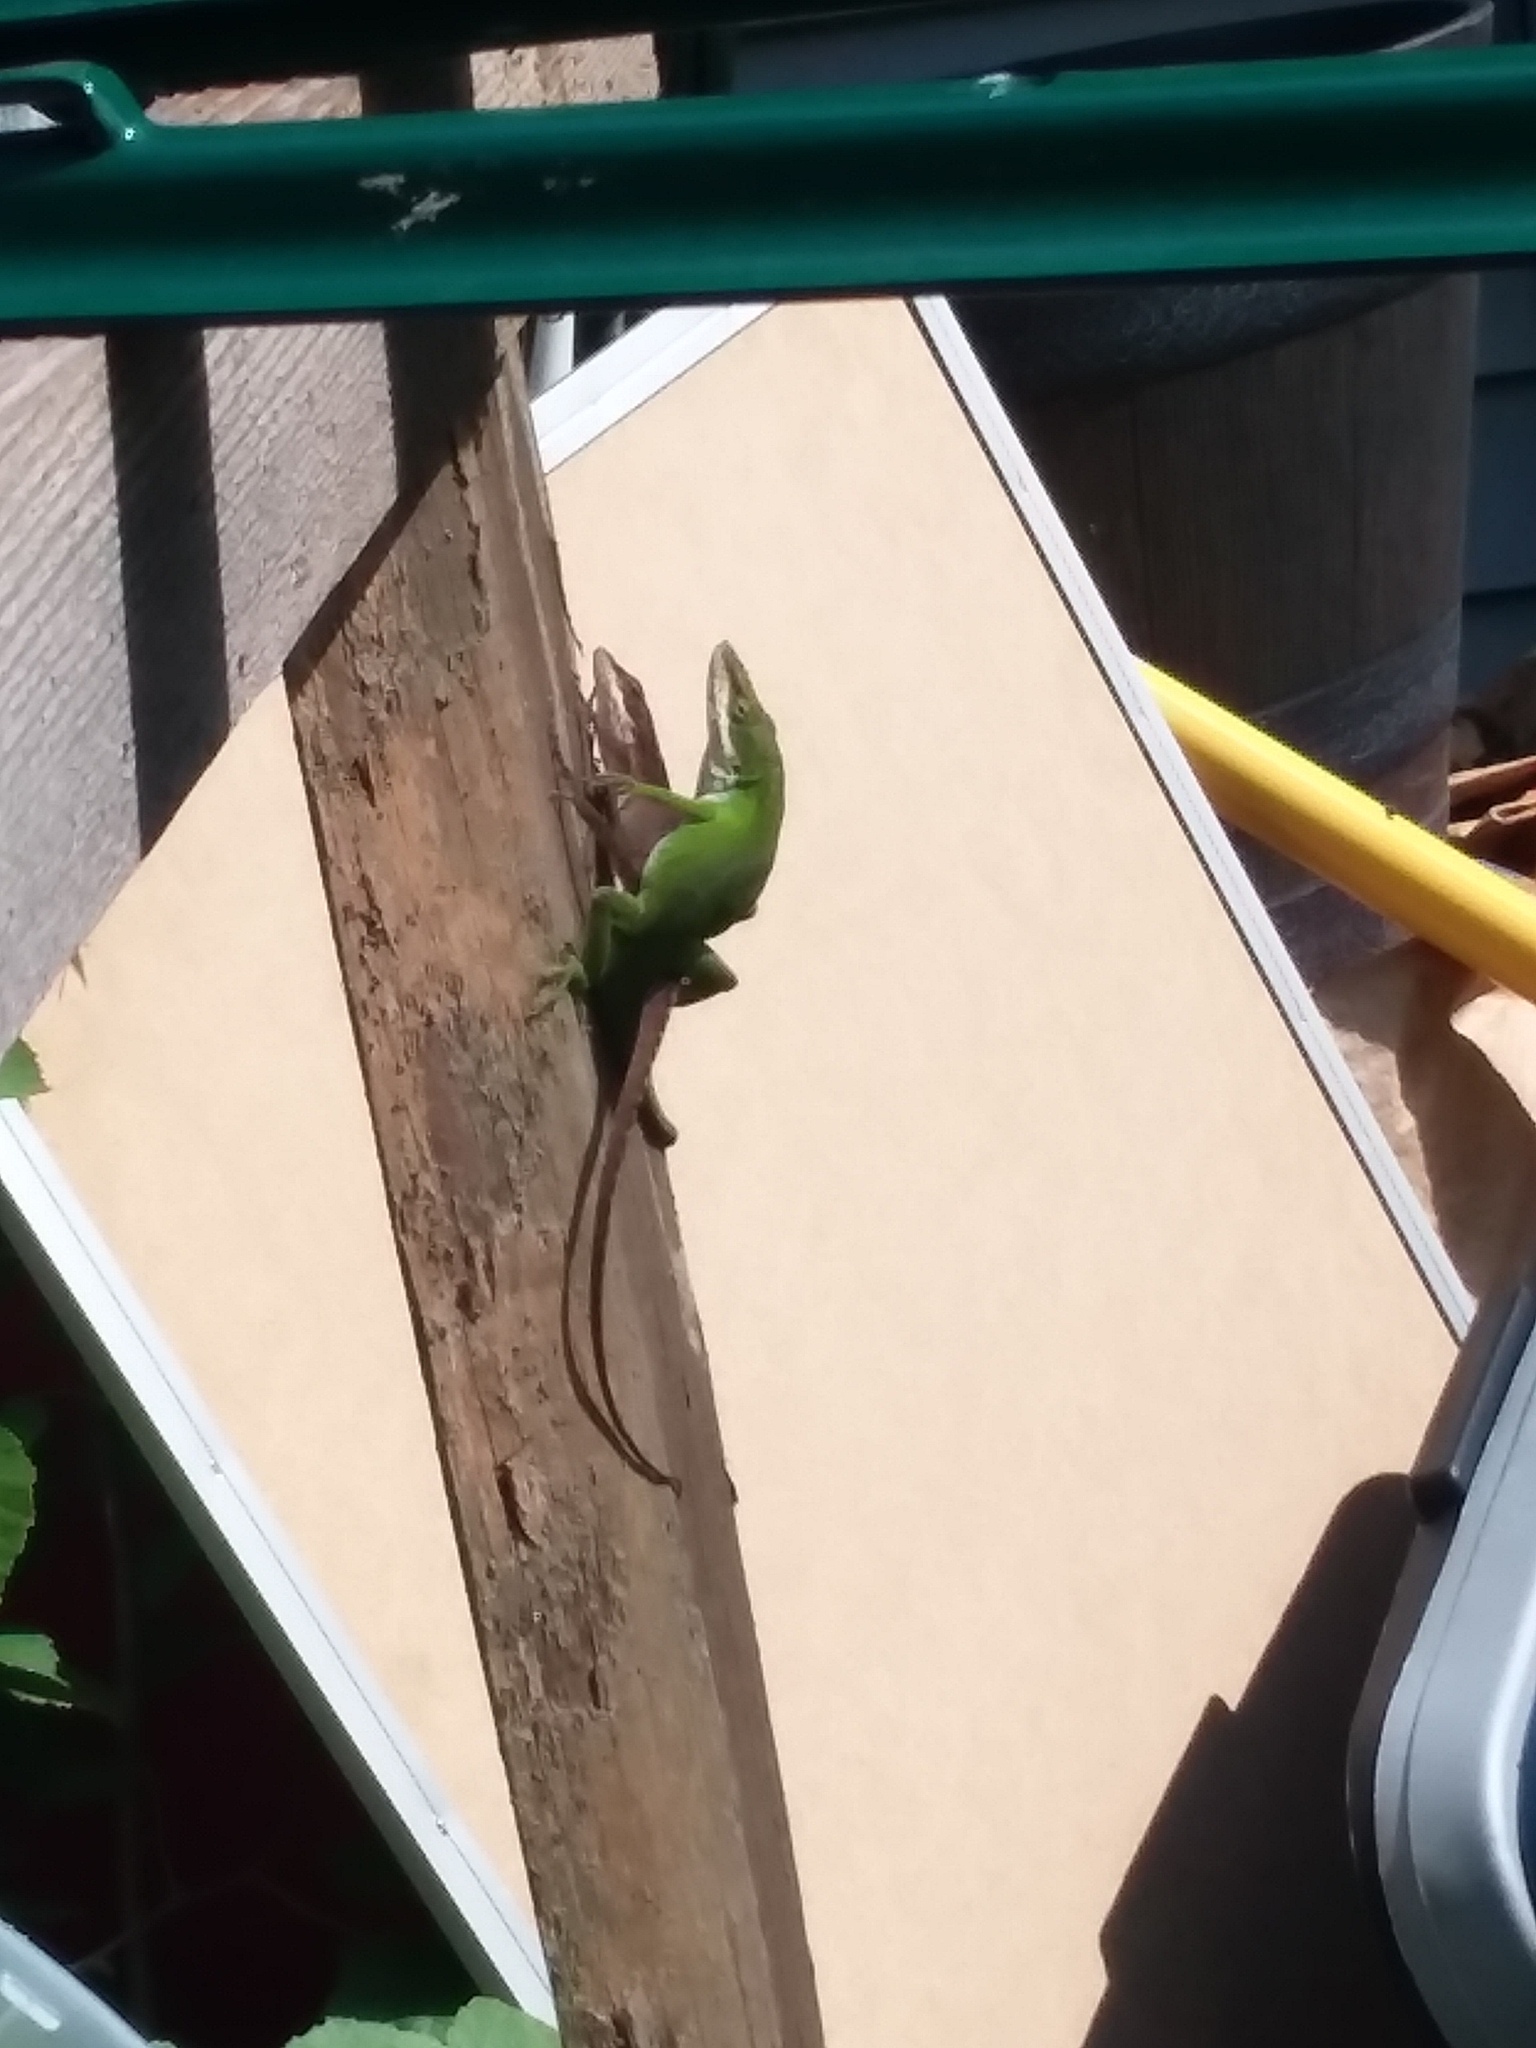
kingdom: Animalia
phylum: Chordata
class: Squamata
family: Dactyloidae
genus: Anolis
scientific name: Anolis carolinensis
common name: Green anole
